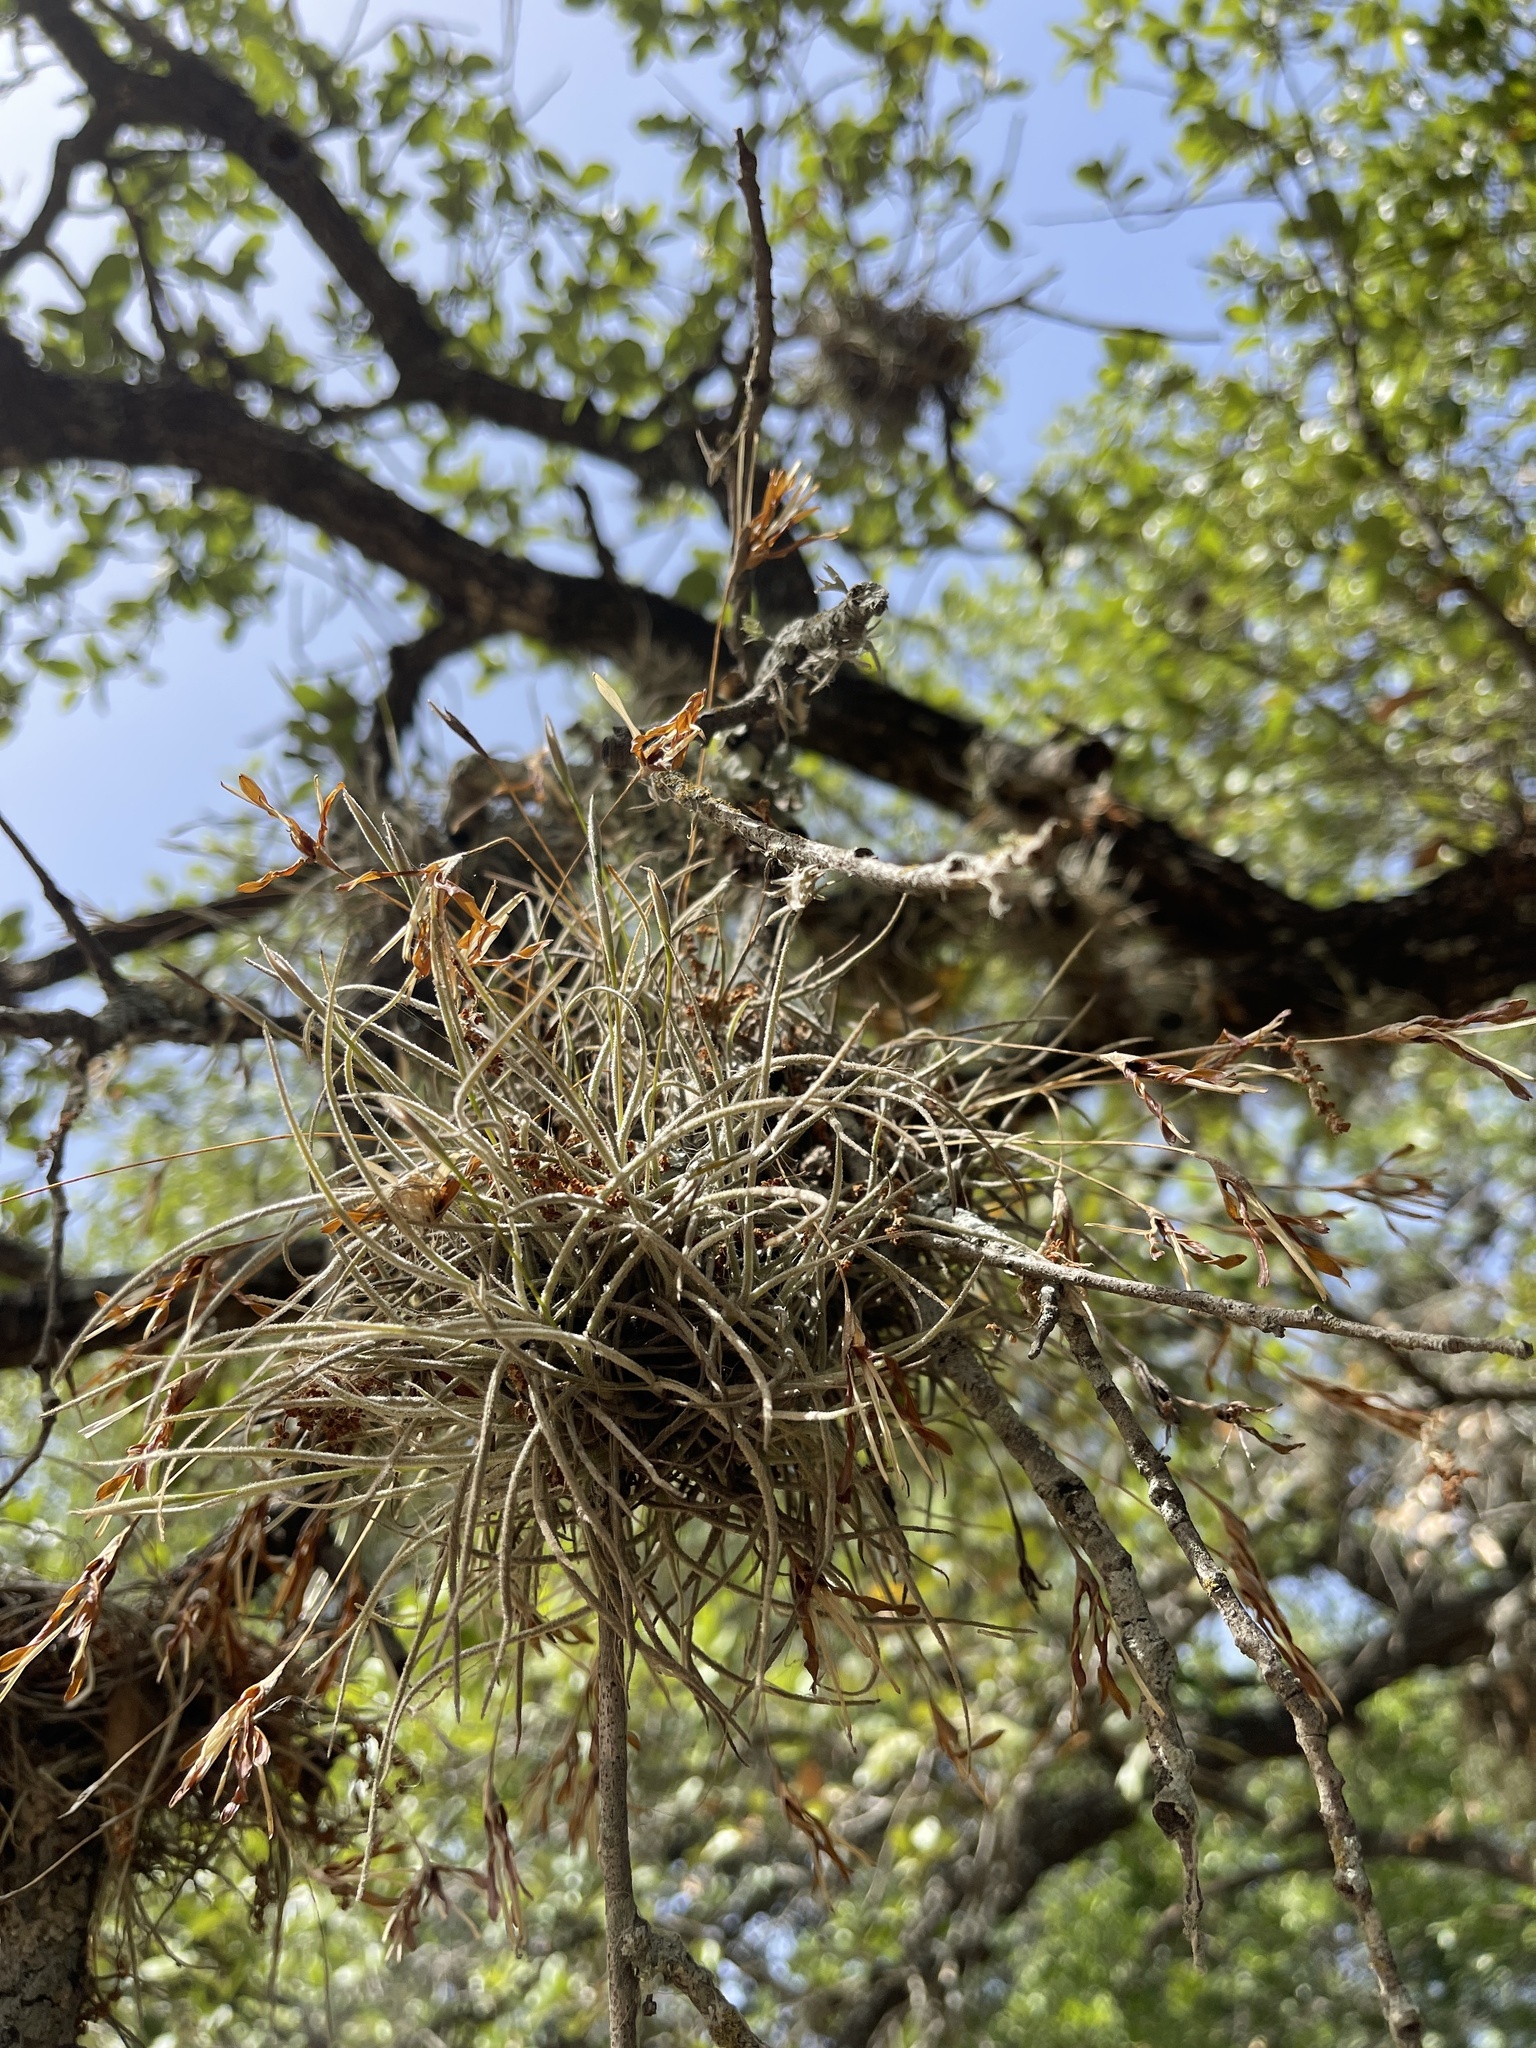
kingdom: Plantae
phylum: Tracheophyta
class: Liliopsida
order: Poales
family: Bromeliaceae
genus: Tillandsia
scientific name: Tillandsia recurvata
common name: Small ballmoss
